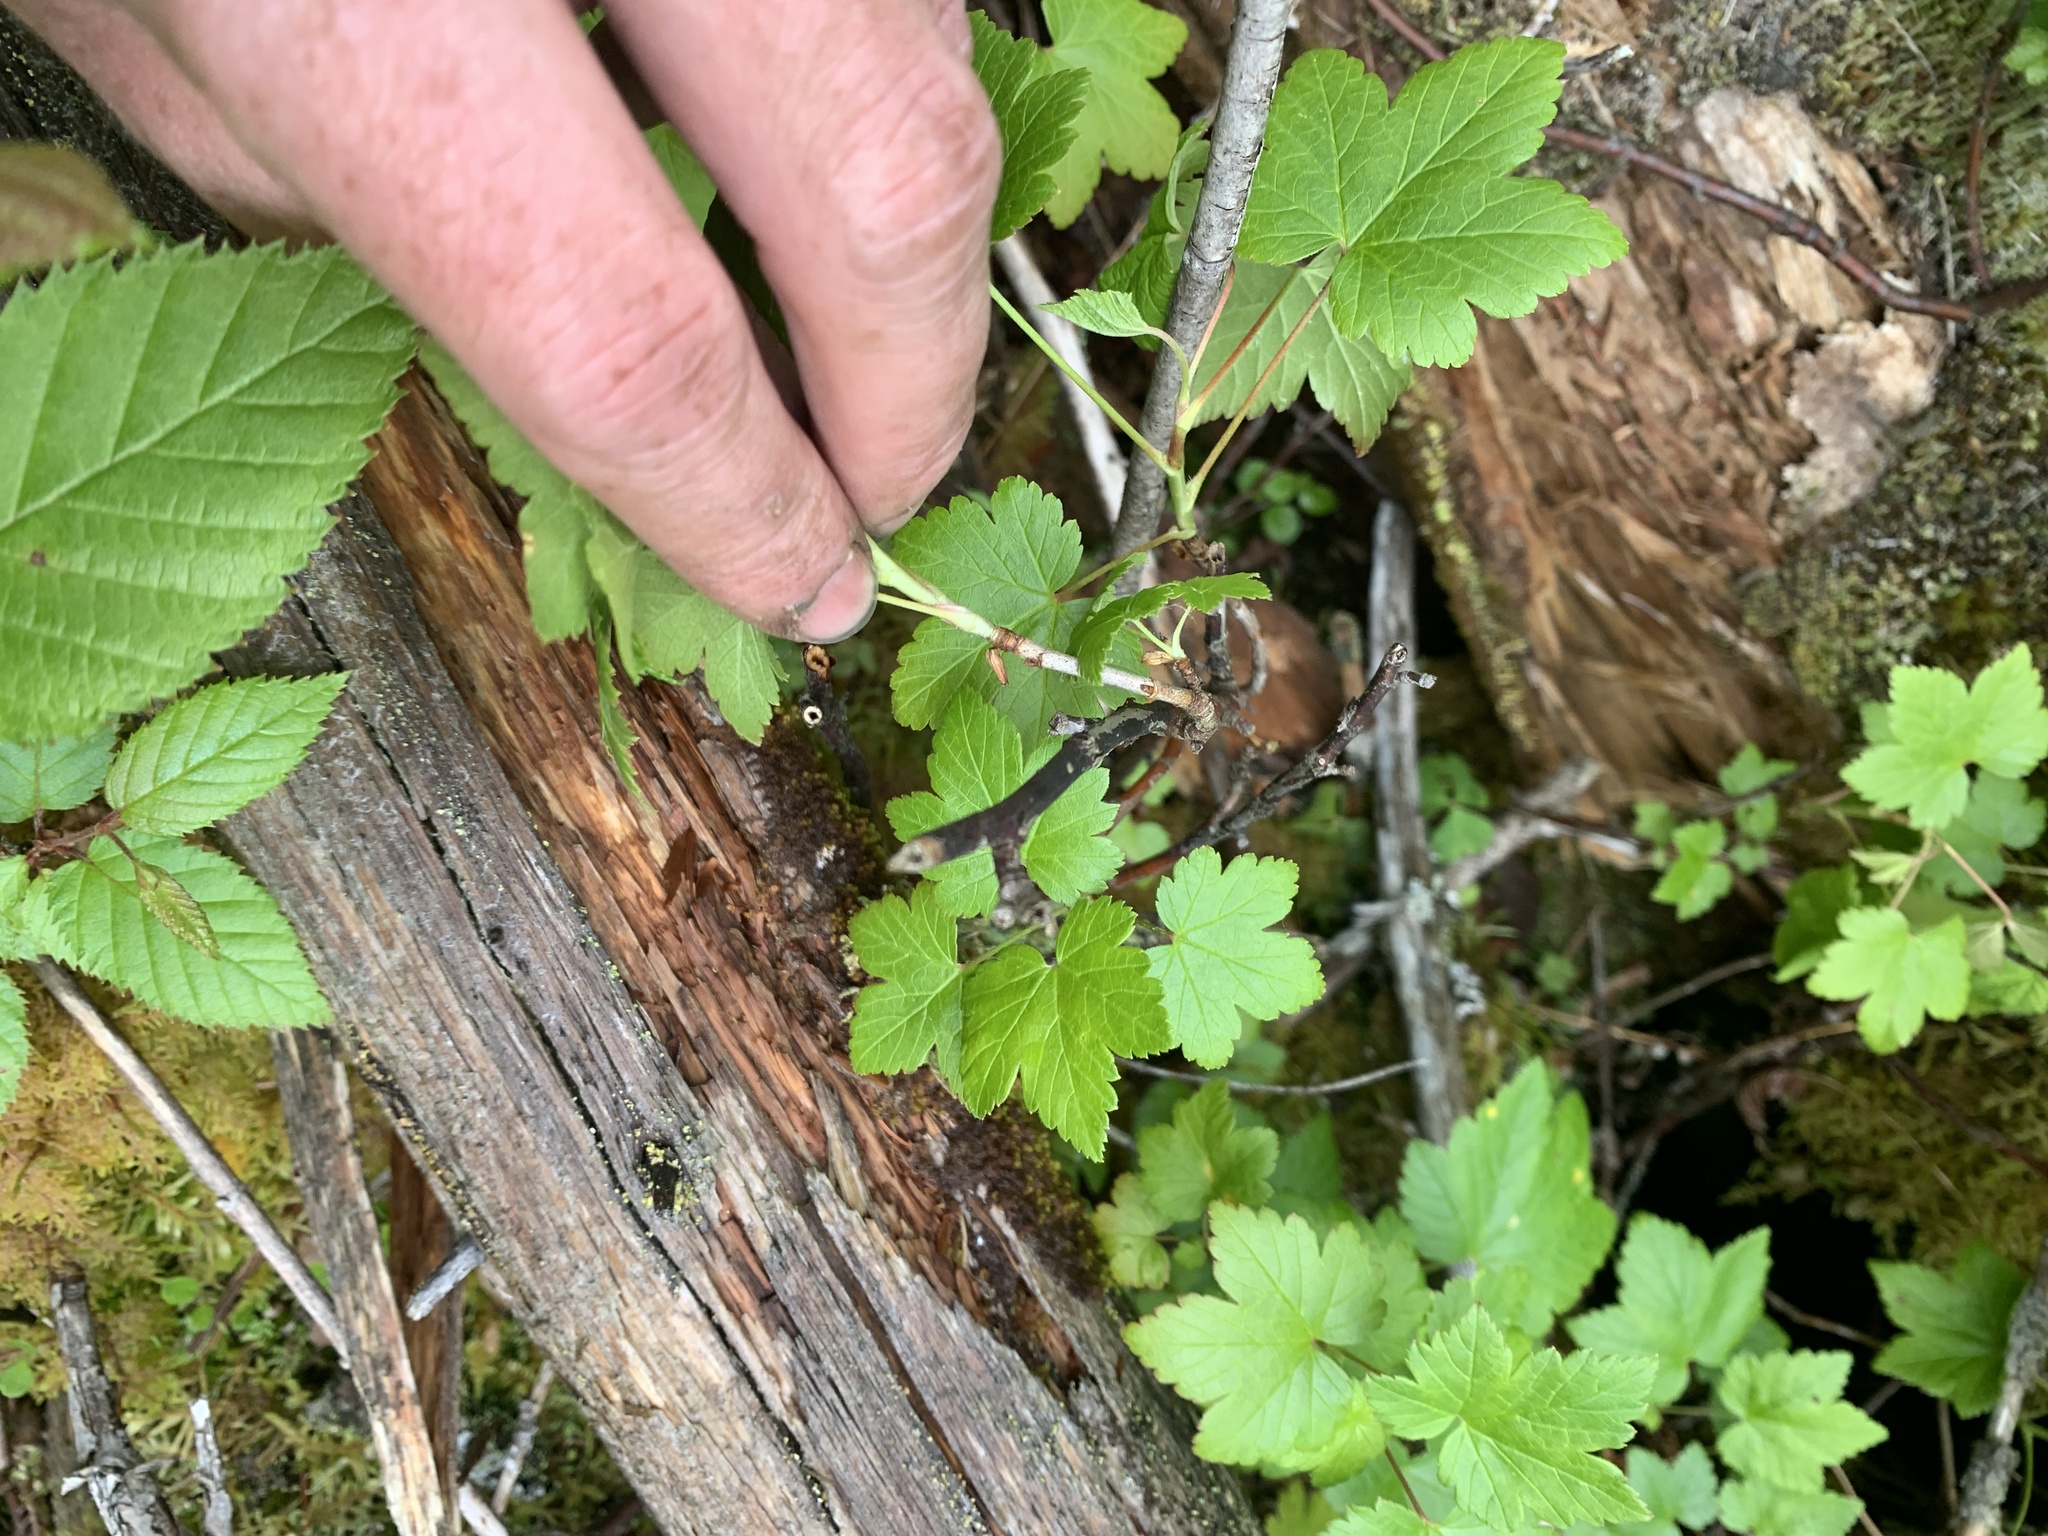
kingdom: Plantae
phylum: Tracheophyta
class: Magnoliopsida
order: Saxifragales
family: Grossulariaceae
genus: Ribes
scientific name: Ribes glandulosum
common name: Skunk currant
